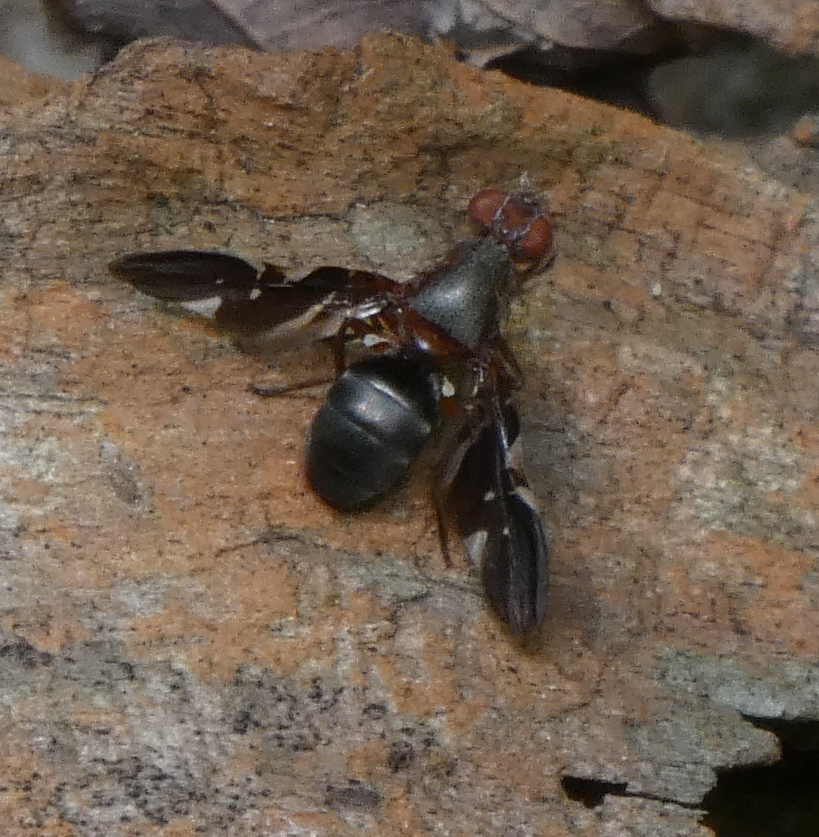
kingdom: Animalia
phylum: Arthropoda
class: Insecta
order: Diptera
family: Ulidiidae
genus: Delphinia
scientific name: Delphinia picta
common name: Common picture-winged fly
